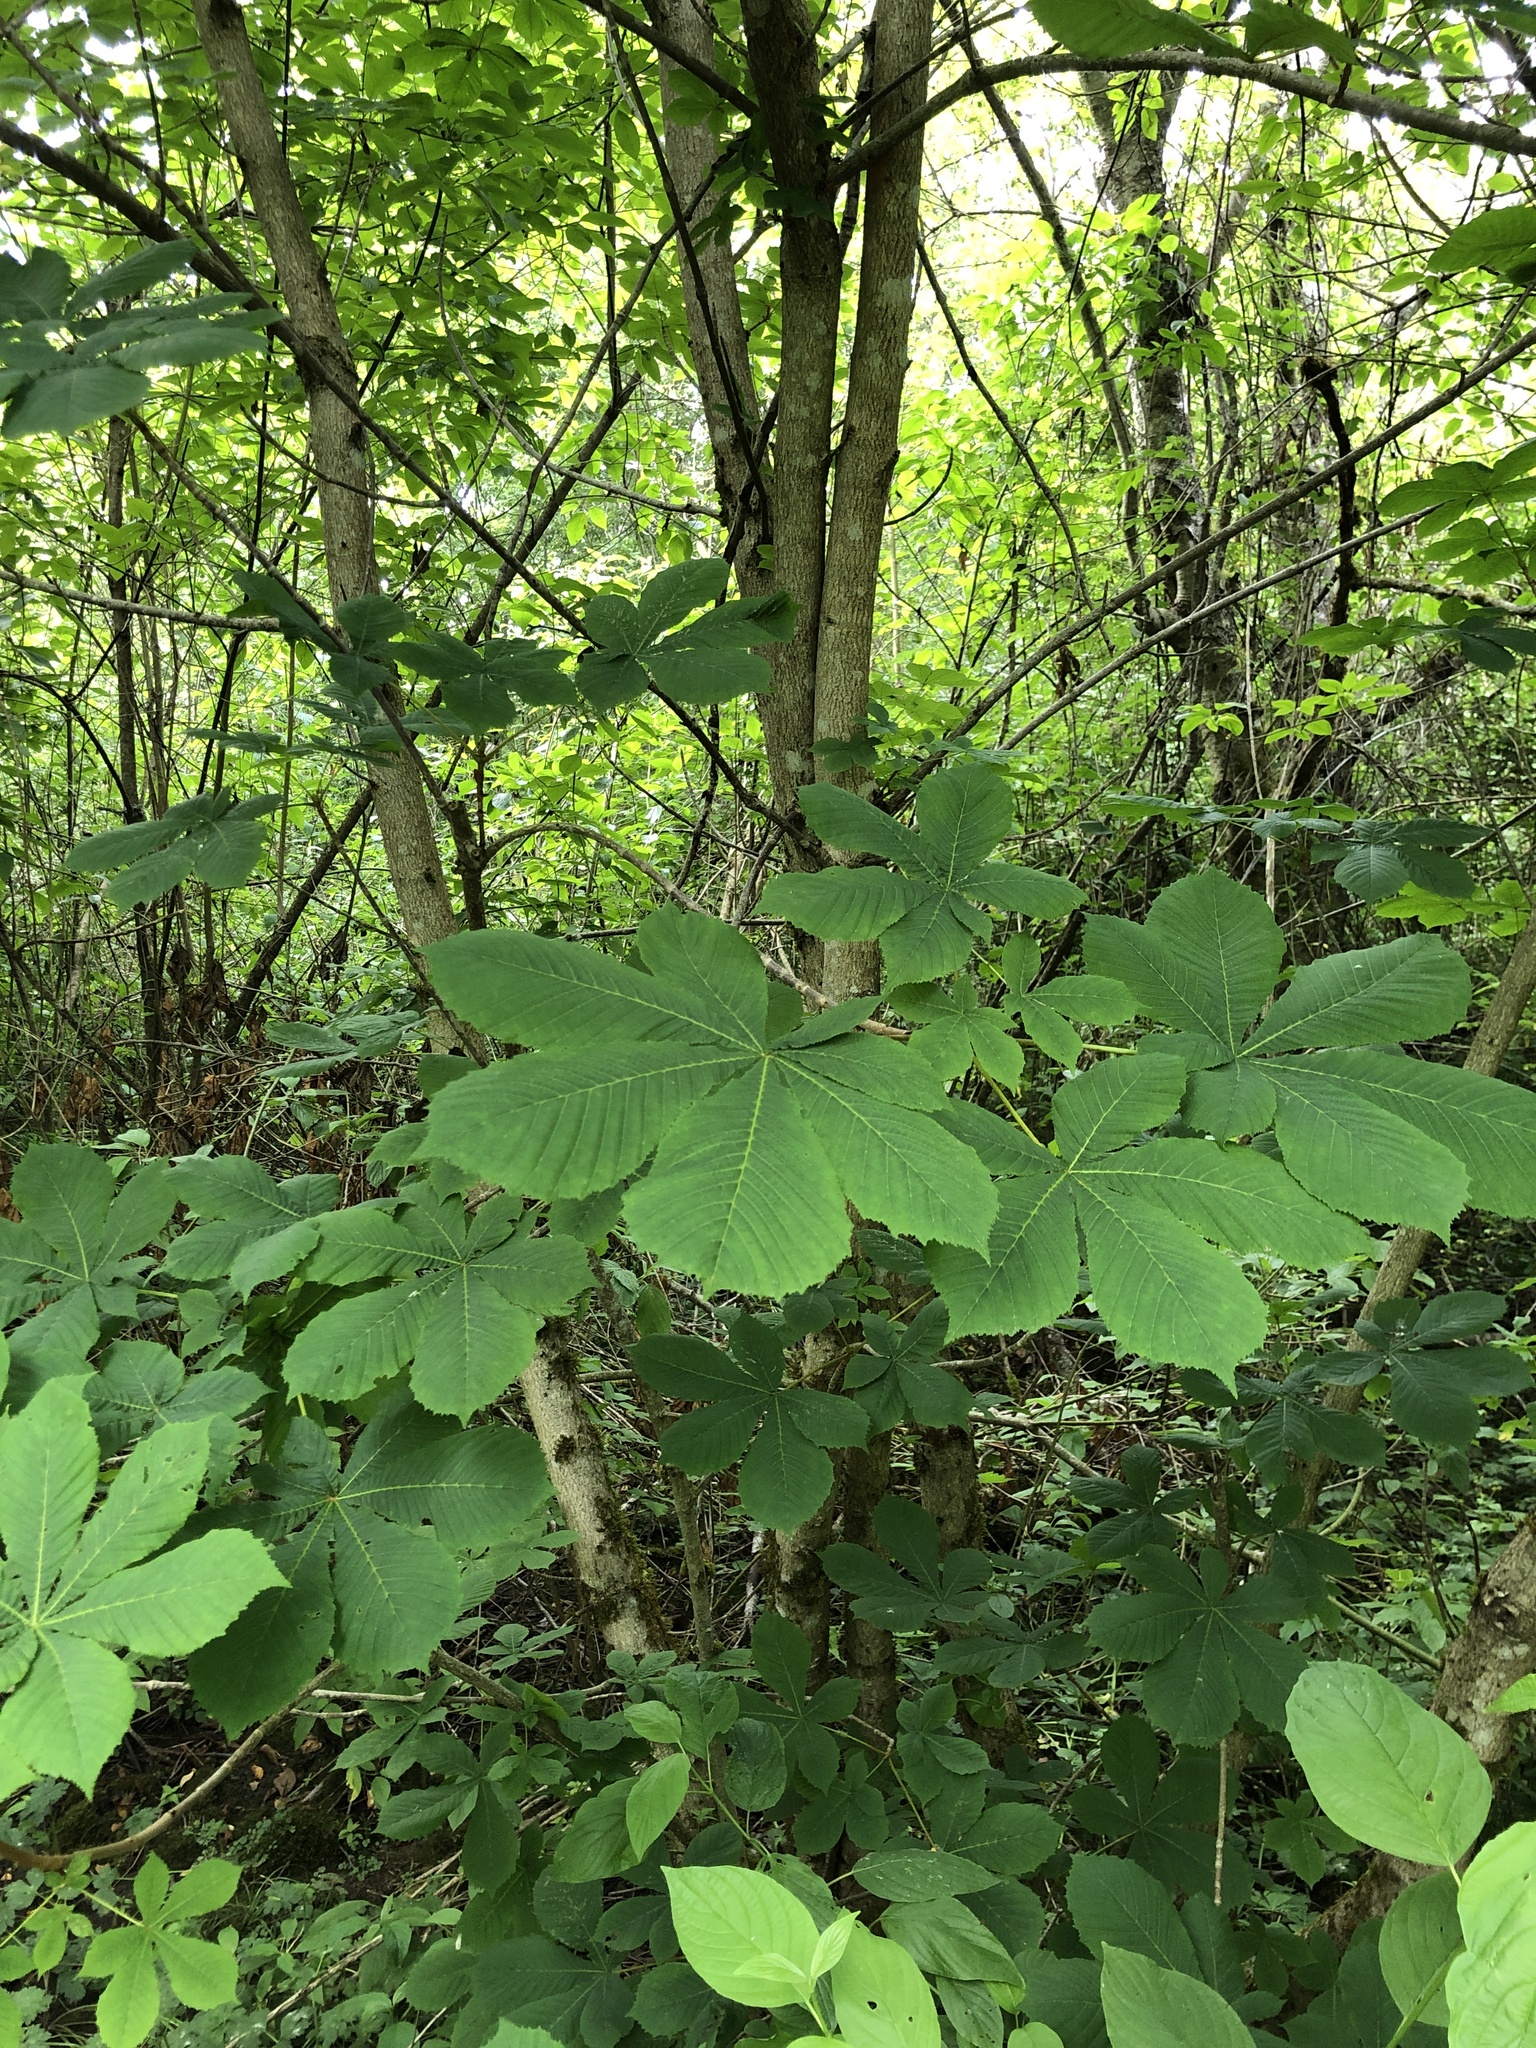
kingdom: Plantae
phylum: Tracheophyta
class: Magnoliopsida
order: Sapindales
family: Sapindaceae
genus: Aesculus
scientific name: Aesculus hippocastanum
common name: Horse-chestnut
